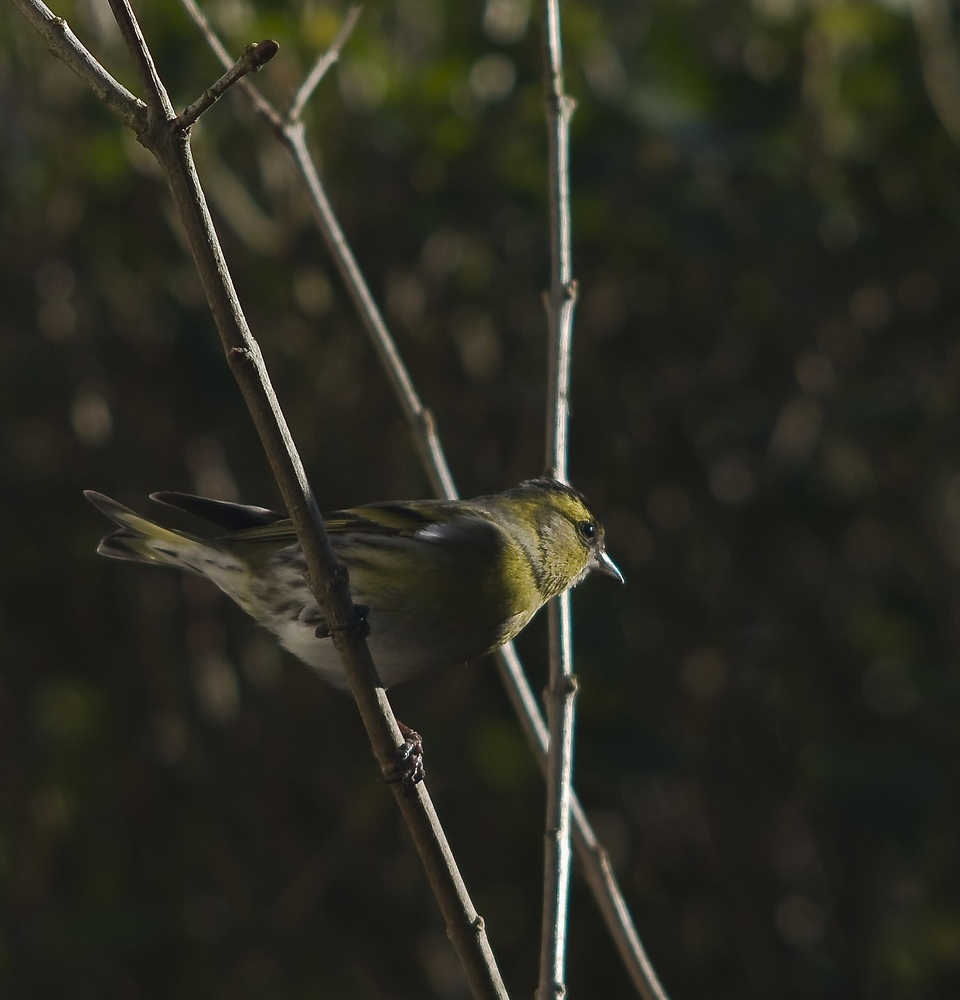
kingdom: Animalia
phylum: Chordata
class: Aves
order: Passeriformes
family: Fringillidae
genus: Spinus
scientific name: Spinus spinus
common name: Eurasian siskin
